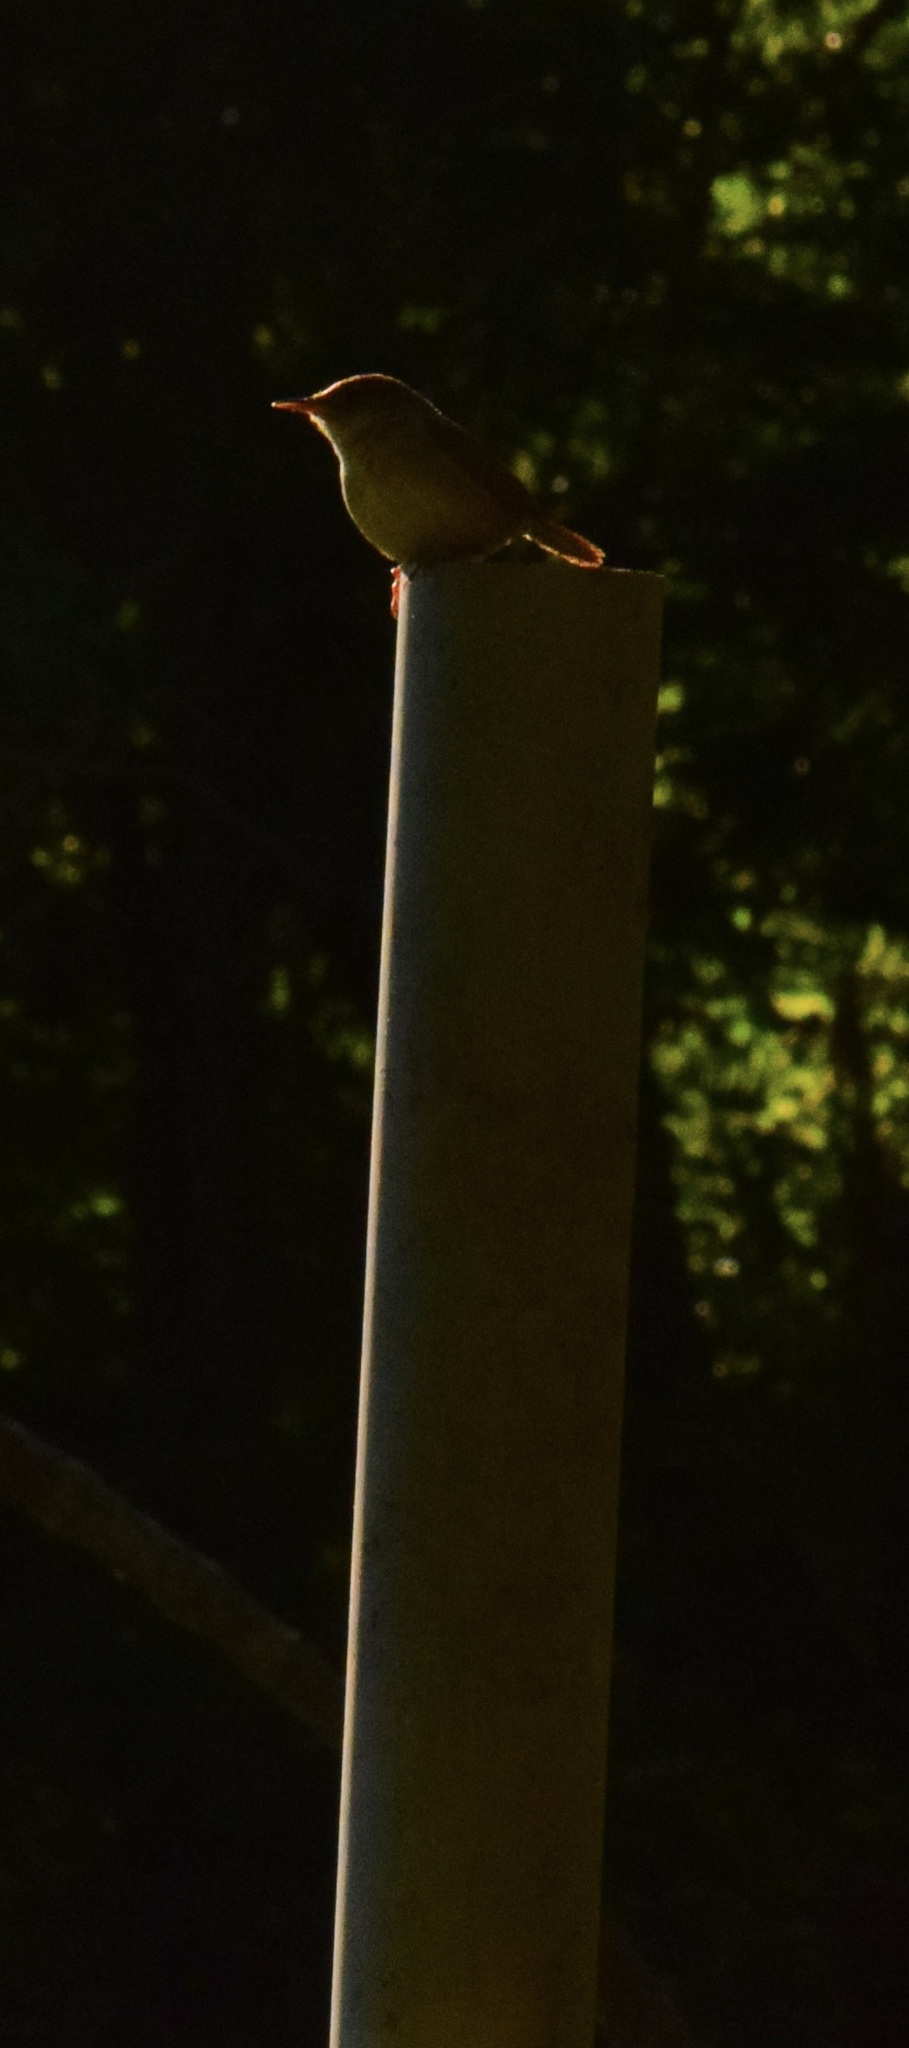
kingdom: Animalia
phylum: Chordata
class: Aves
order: Passeriformes
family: Troglodytidae
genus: Troglodytes
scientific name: Troglodytes aedon
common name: House wren
